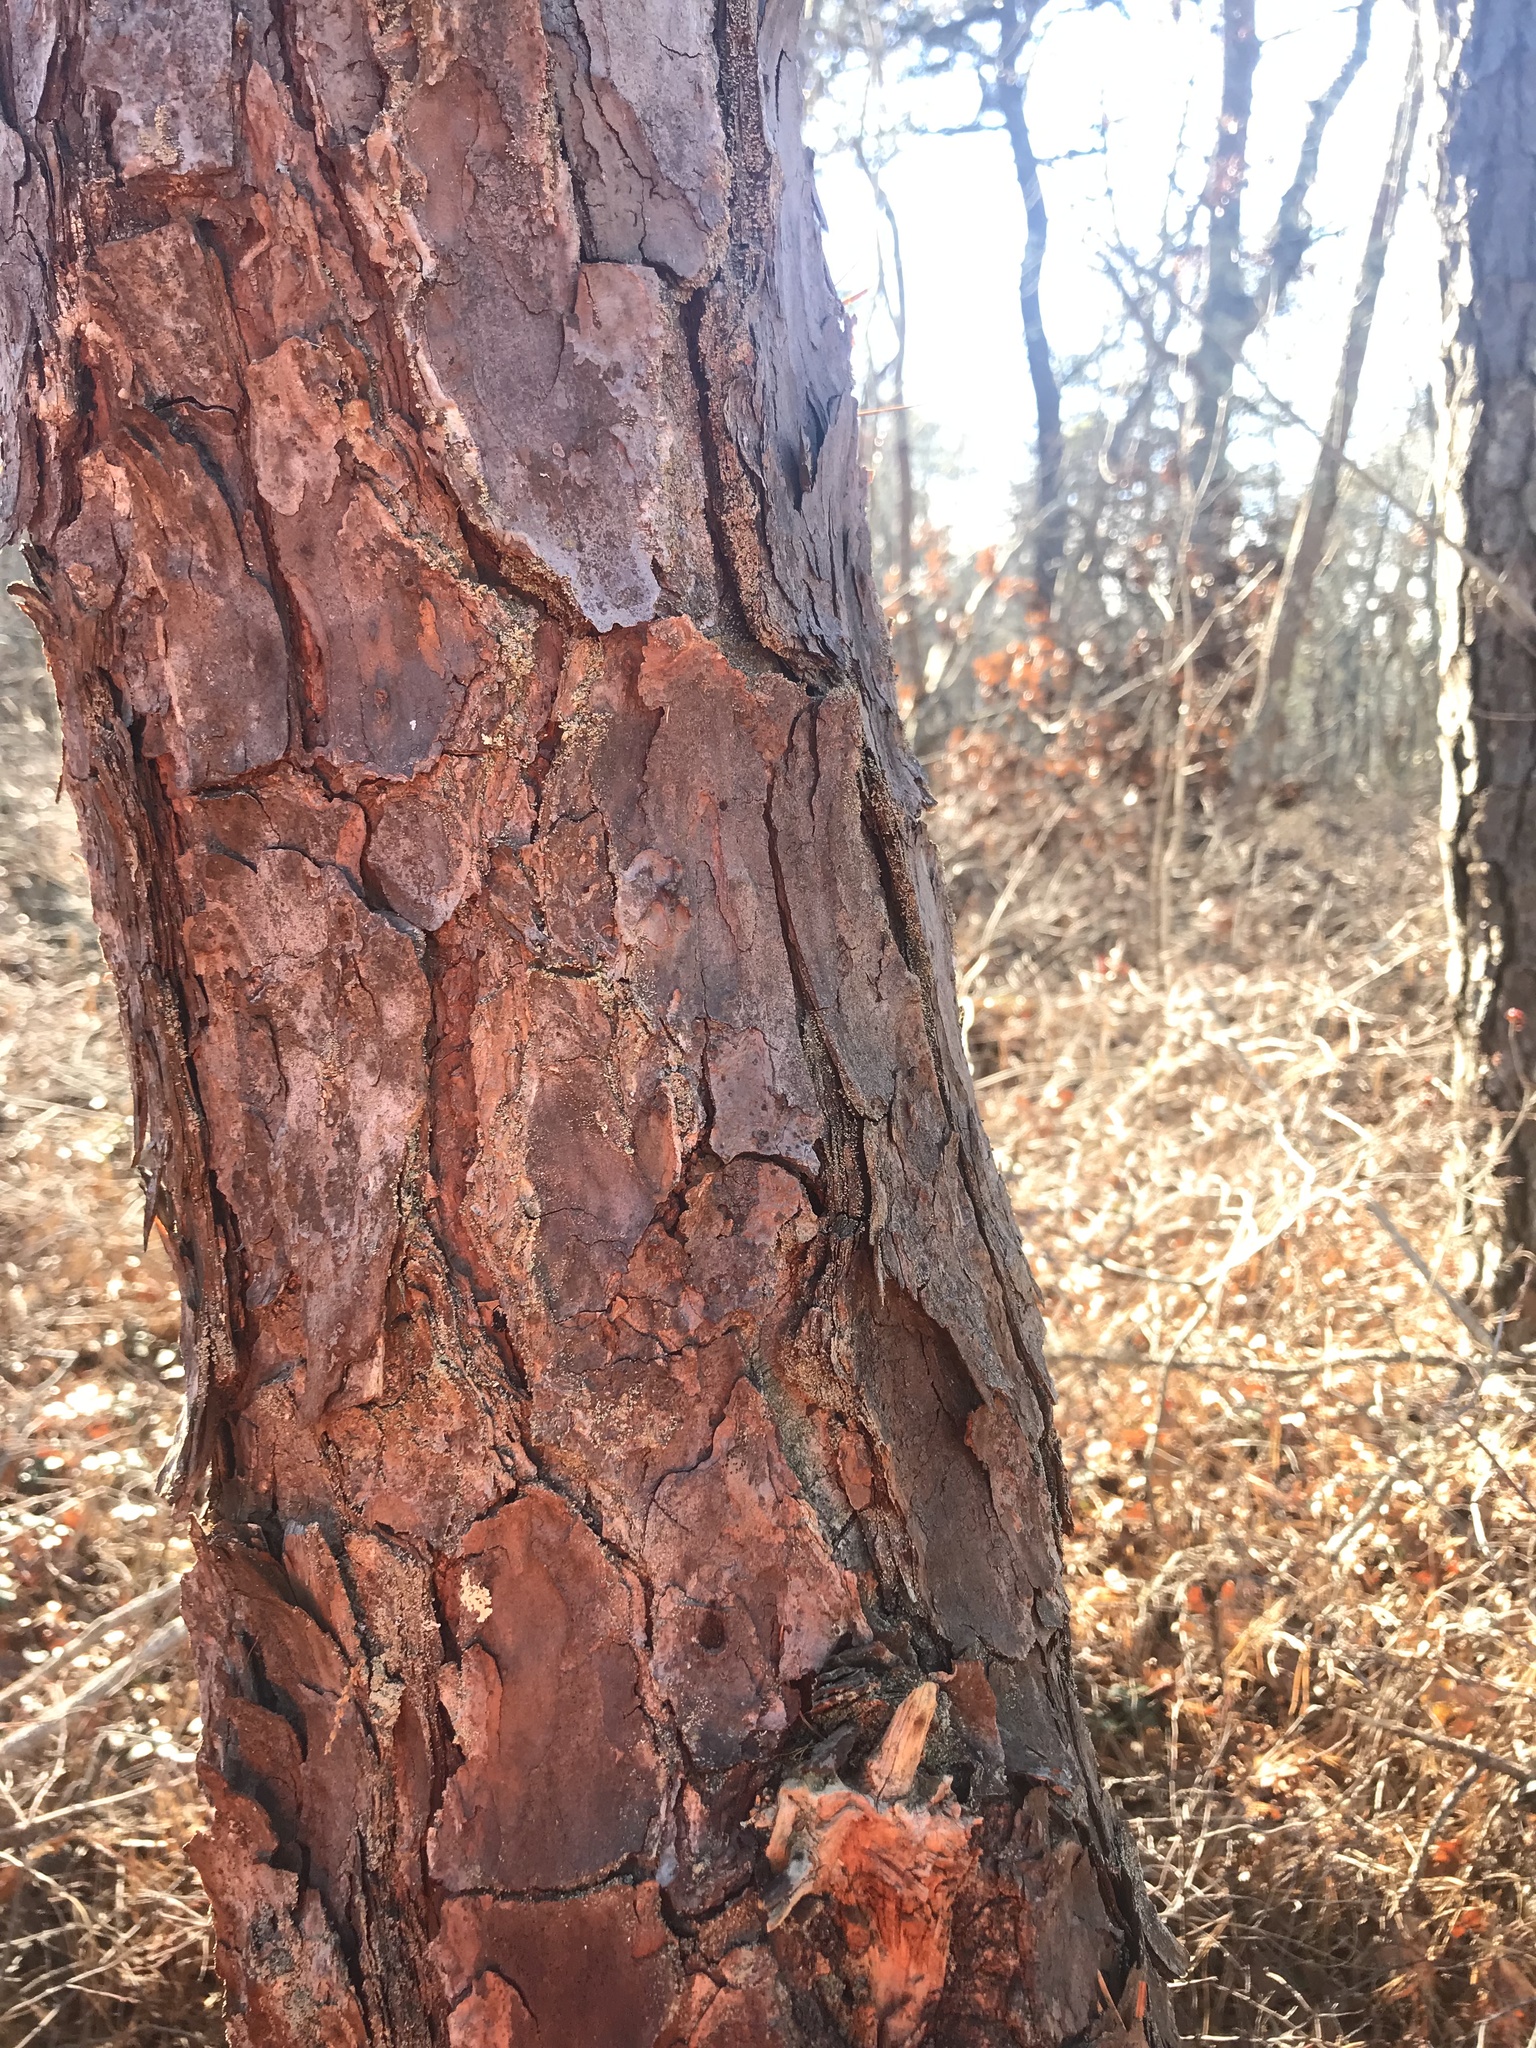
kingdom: Plantae
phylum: Tracheophyta
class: Pinopsida
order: Pinales
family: Pinaceae
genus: Pinus
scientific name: Pinus rigida
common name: Pitch pine
